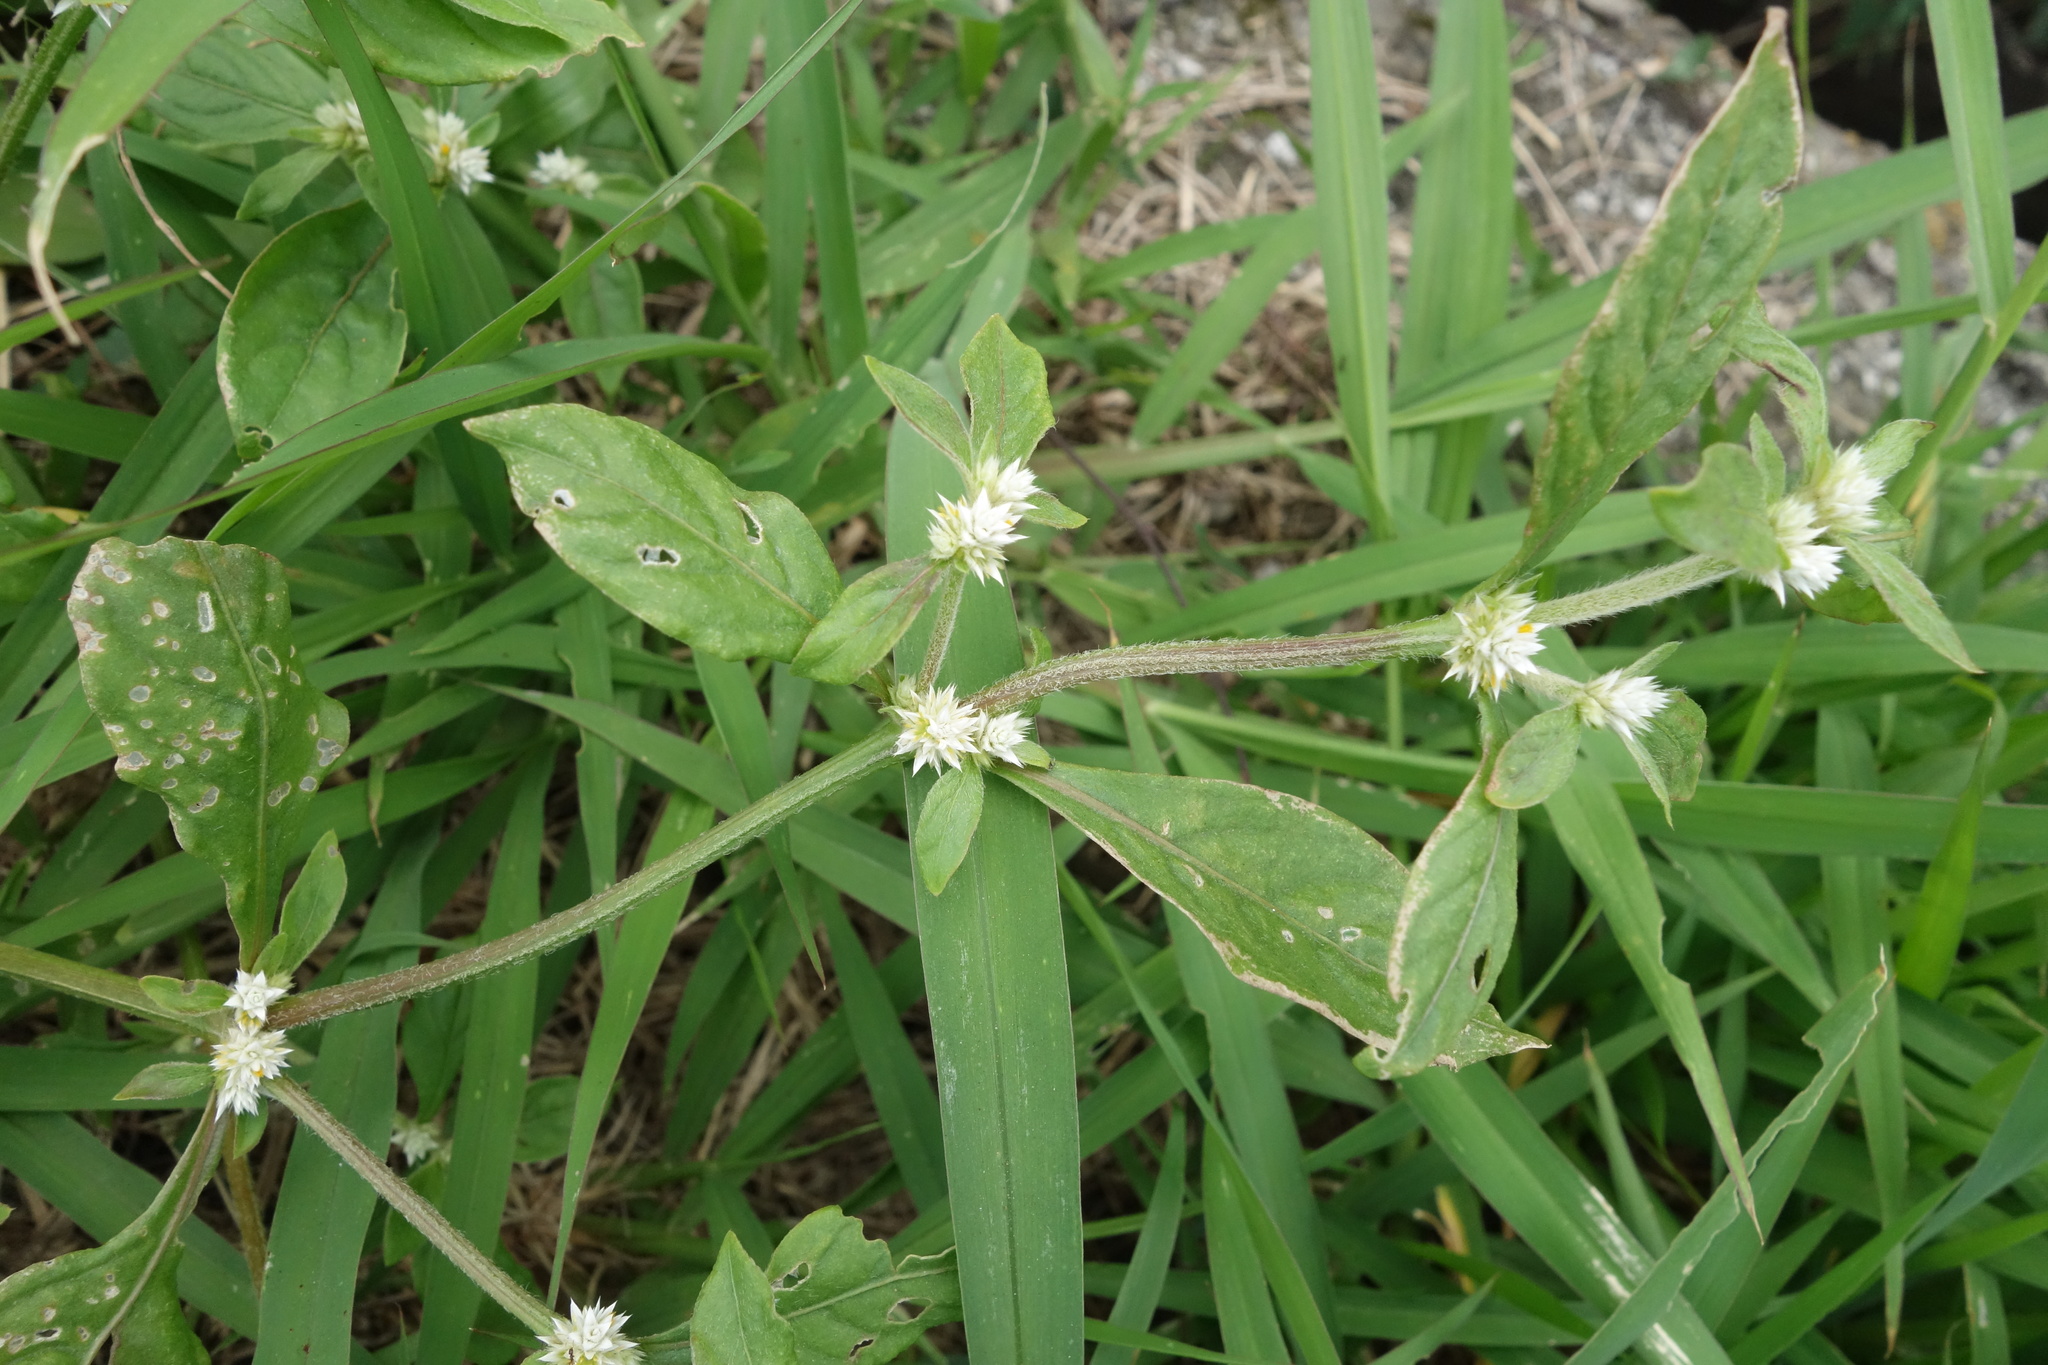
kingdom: Plantae
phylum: Tracheophyta
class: Magnoliopsida
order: Caryophyllales
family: Amaranthaceae
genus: Alternanthera
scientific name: Alternanthera bettzickiana
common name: Calico-plant
